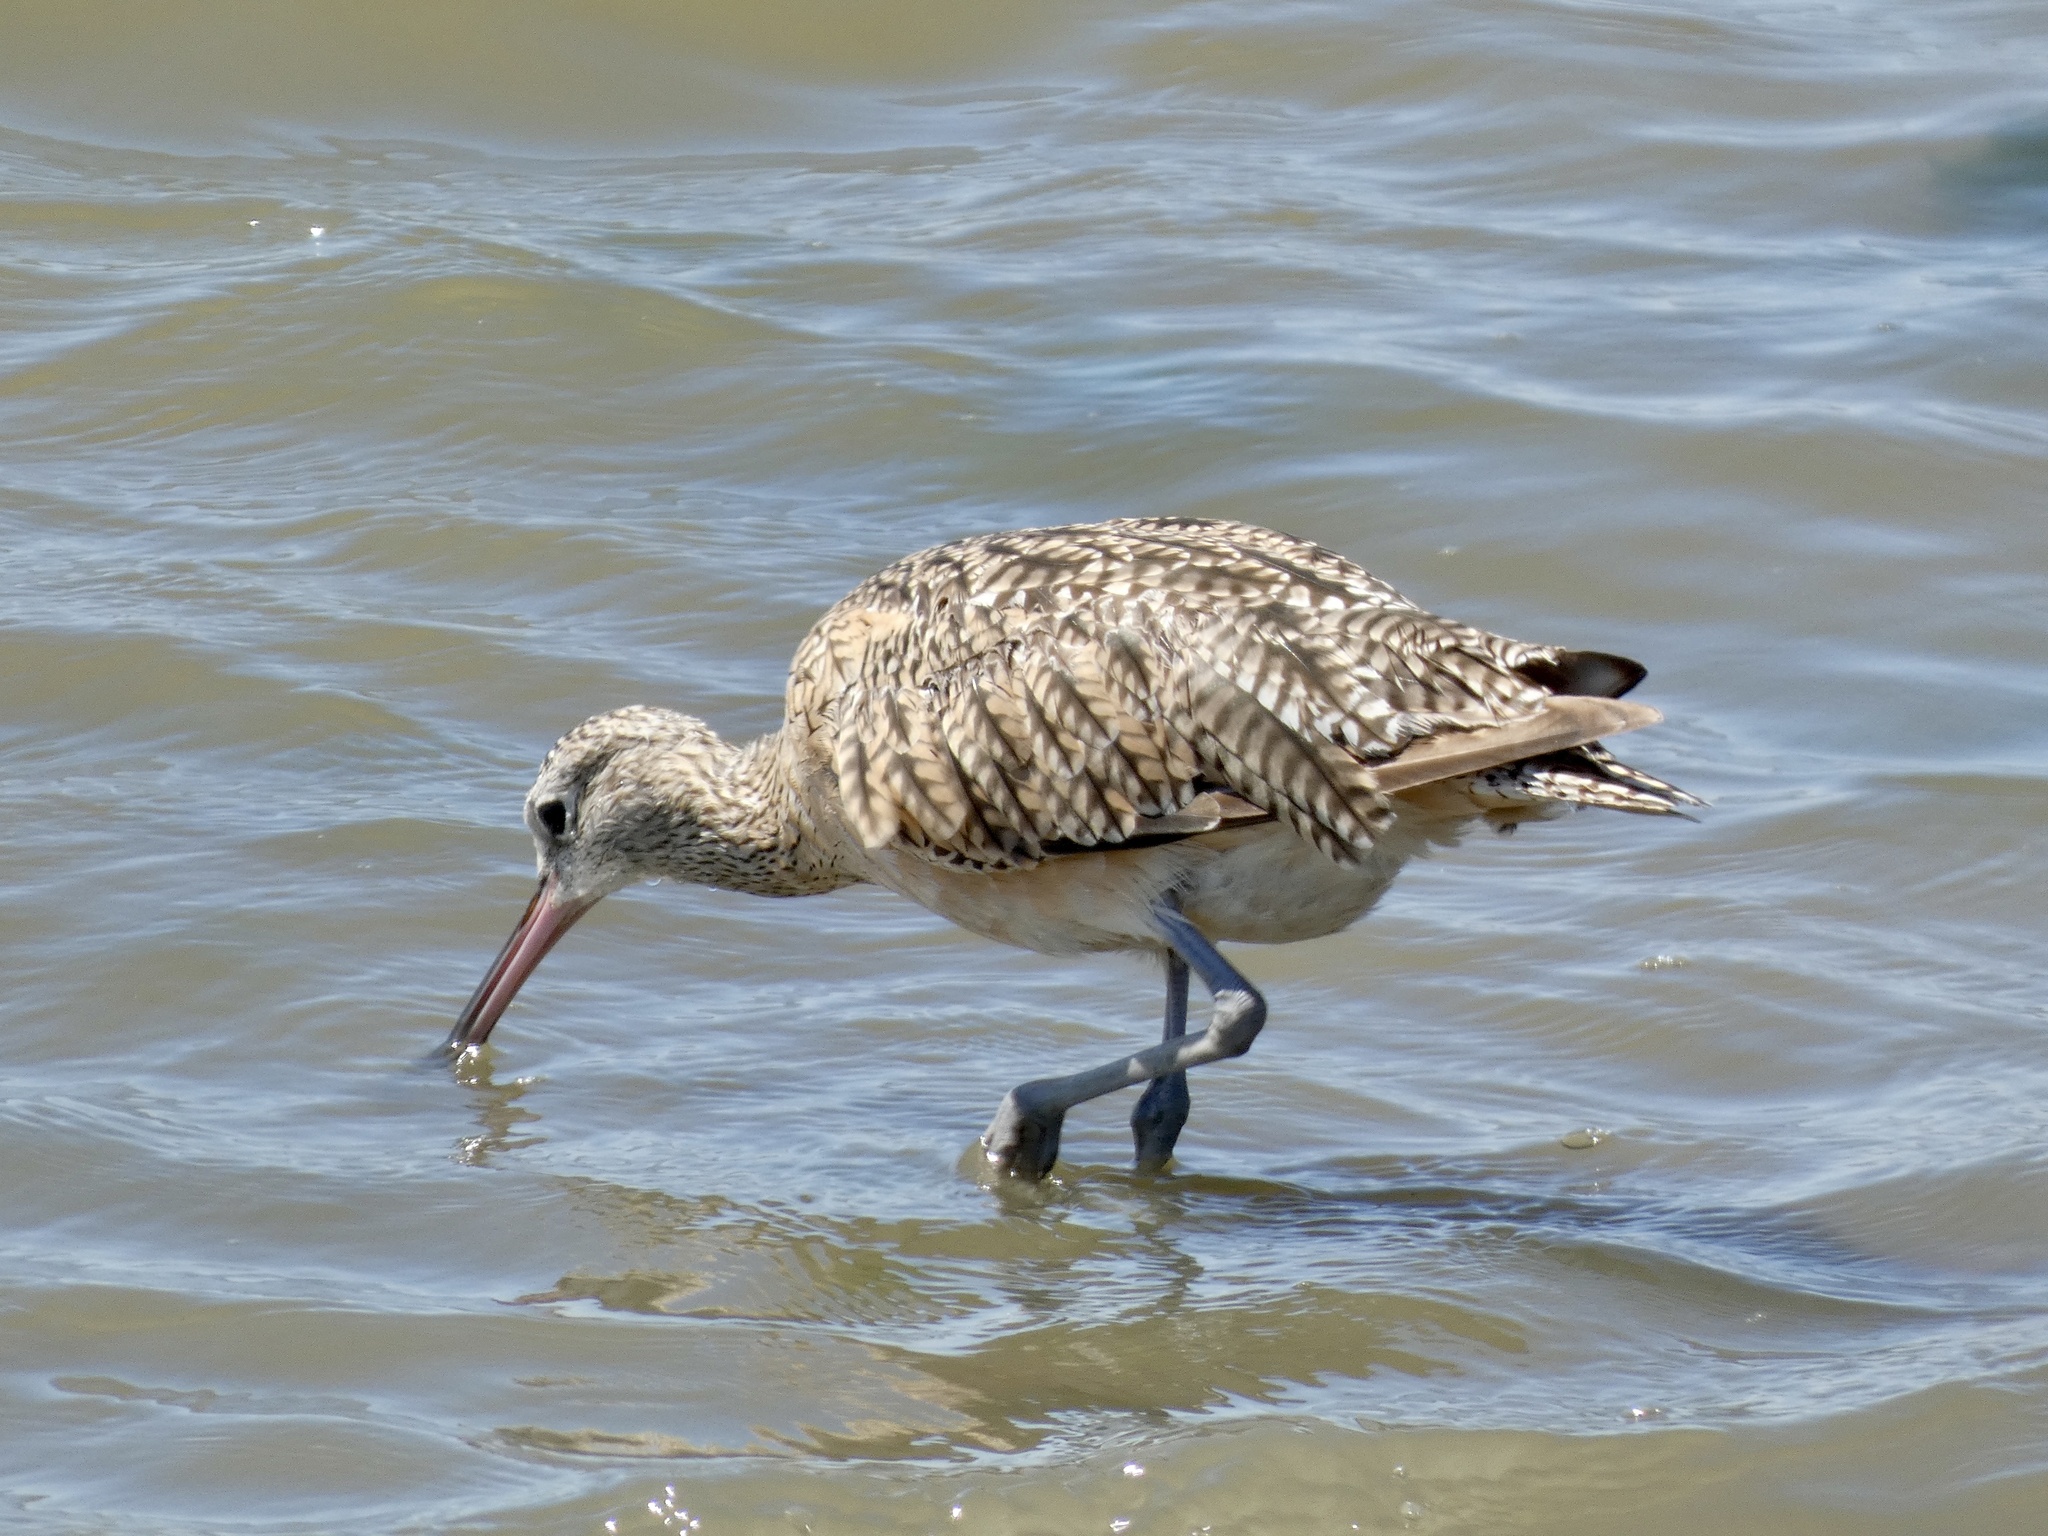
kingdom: Animalia
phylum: Chordata
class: Aves
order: Charadriiformes
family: Scolopacidae
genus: Numenius
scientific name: Numenius americanus
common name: Long-billed curlew
